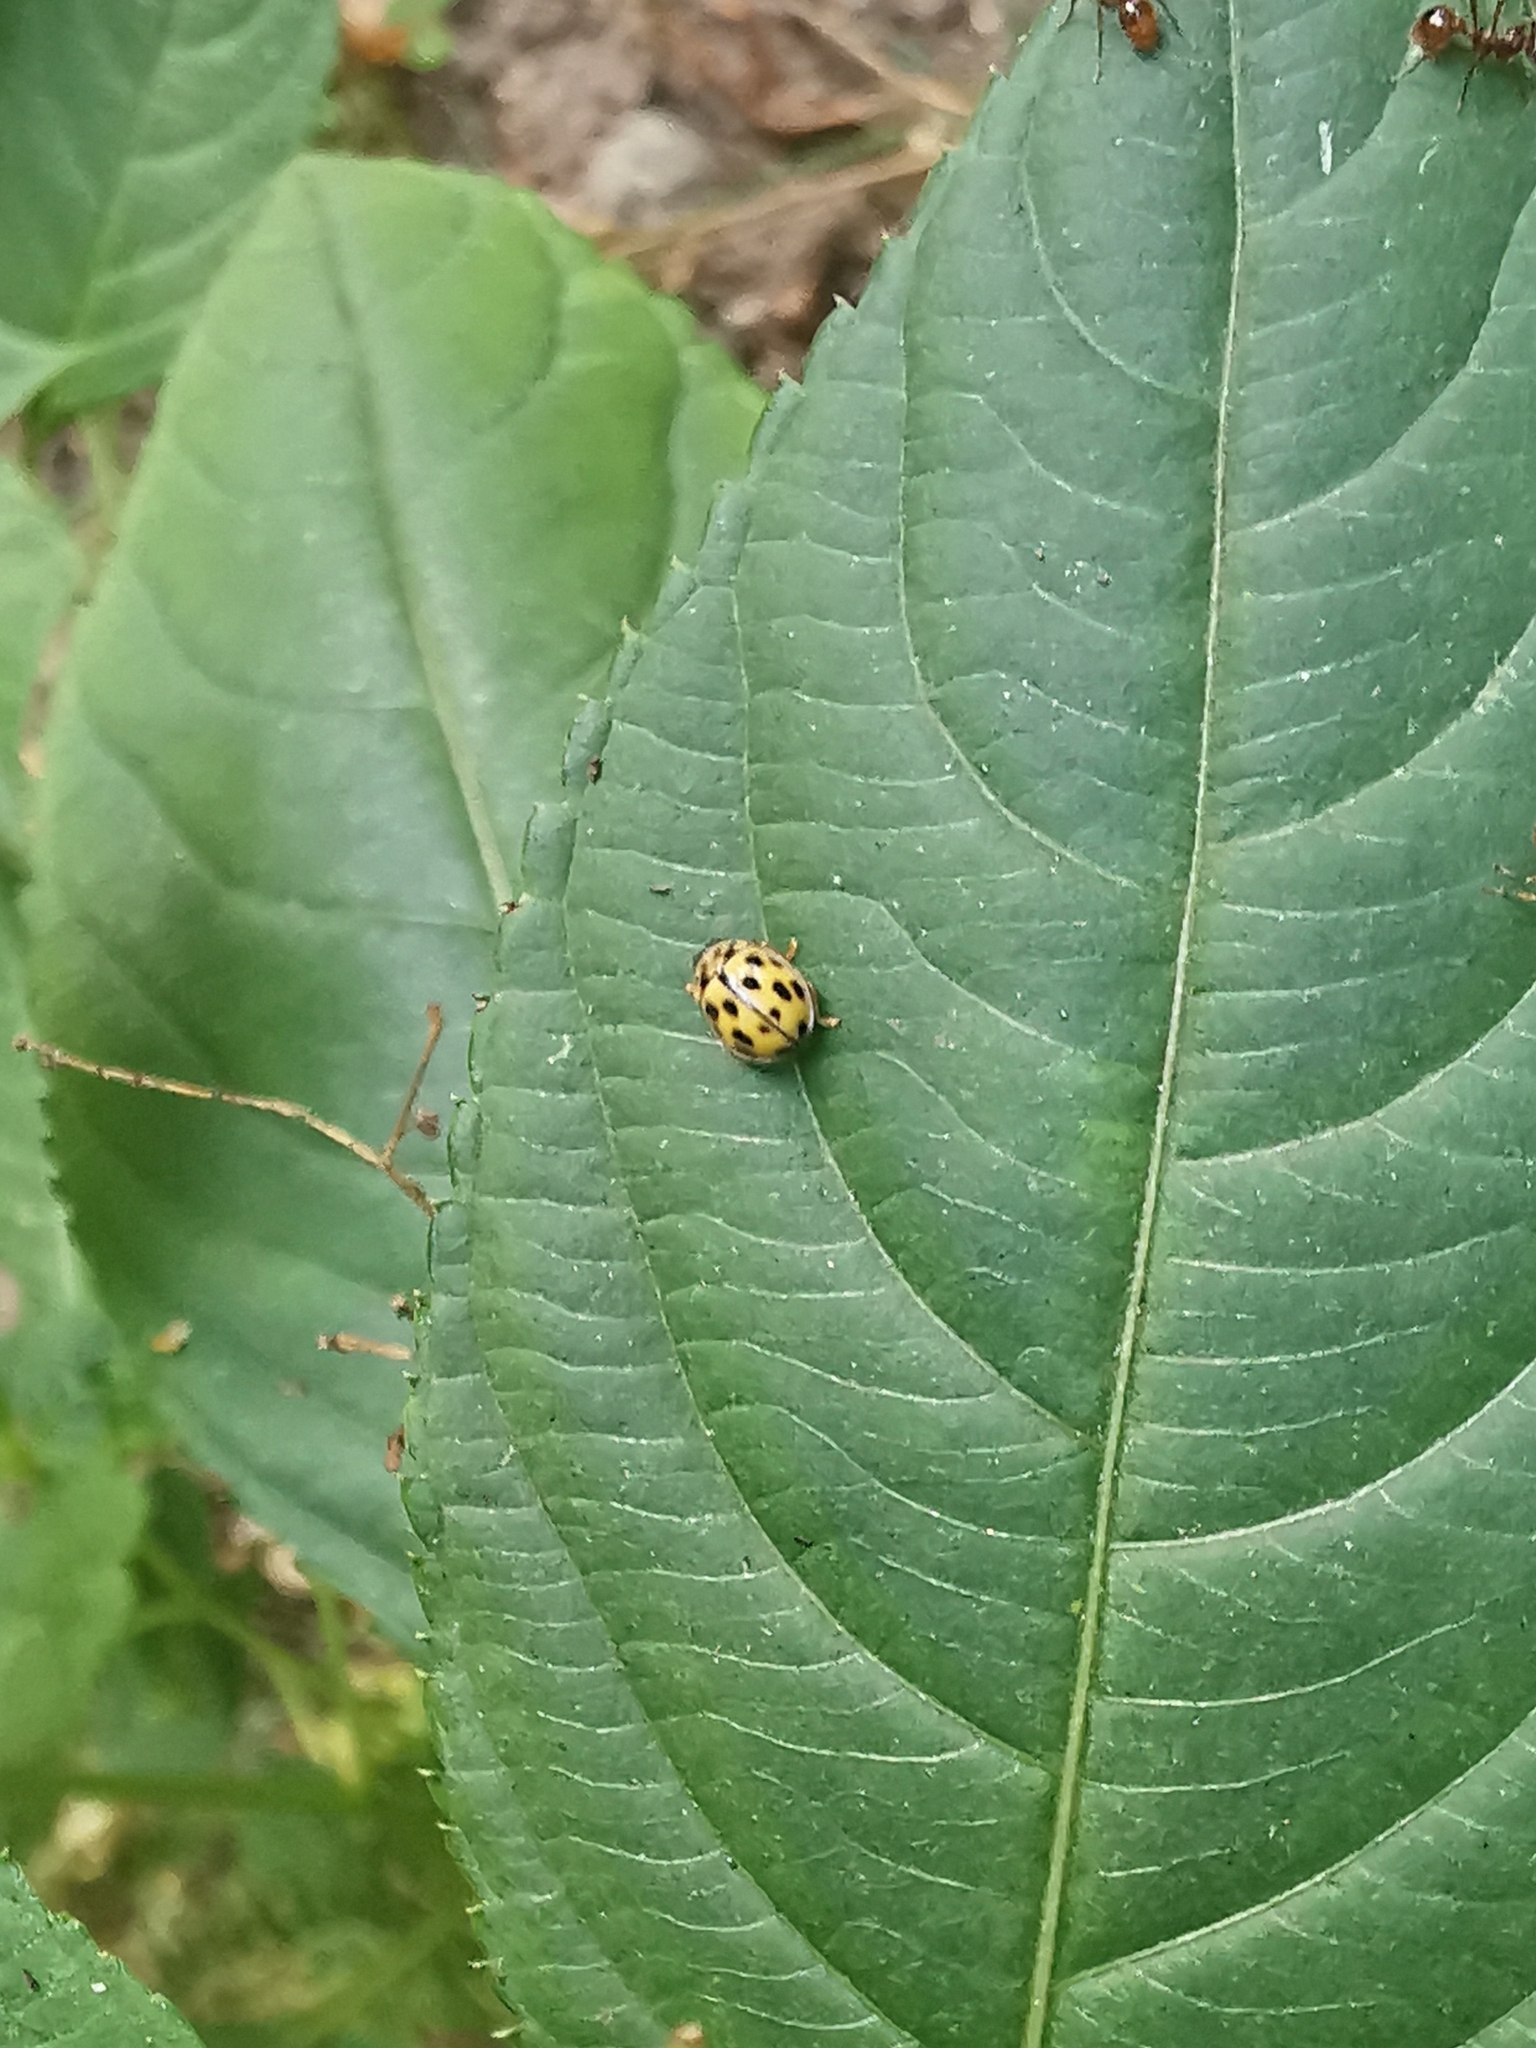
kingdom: Animalia
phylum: Arthropoda
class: Insecta
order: Coleoptera
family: Coccinellidae
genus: Propylaea
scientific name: Propylaea quatuordecimpunctata
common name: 14-spotted ladybird beetle
